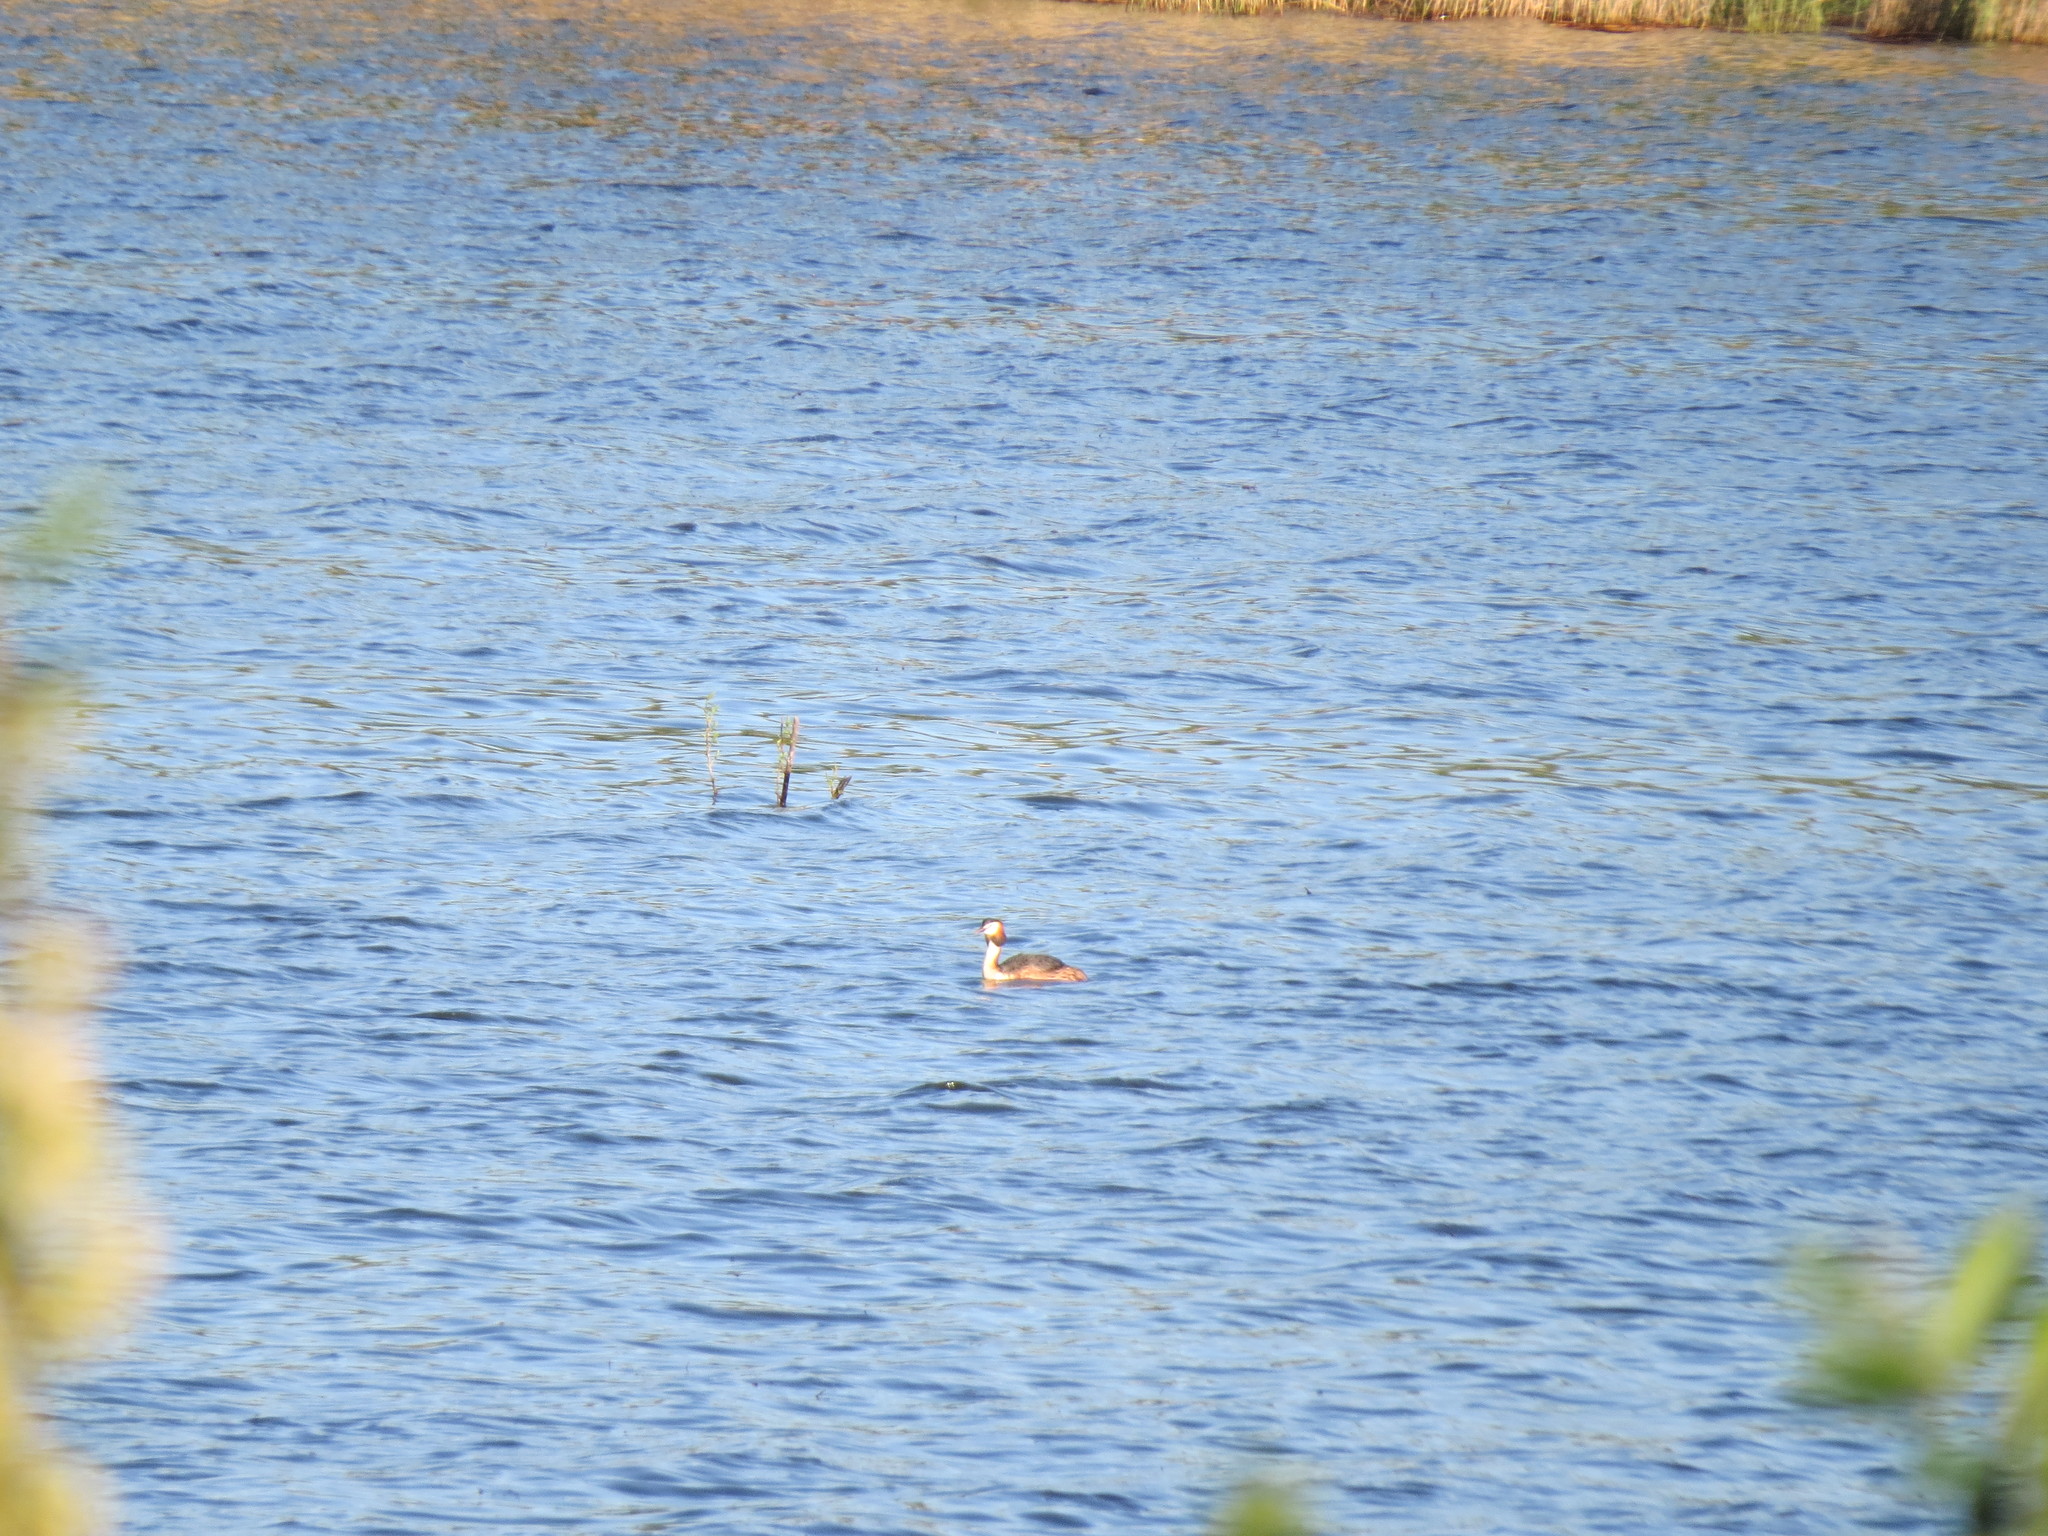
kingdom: Animalia
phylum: Chordata
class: Aves
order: Podicipediformes
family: Podicipedidae
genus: Podiceps
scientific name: Podiceps cristatus
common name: Great crested grebe
